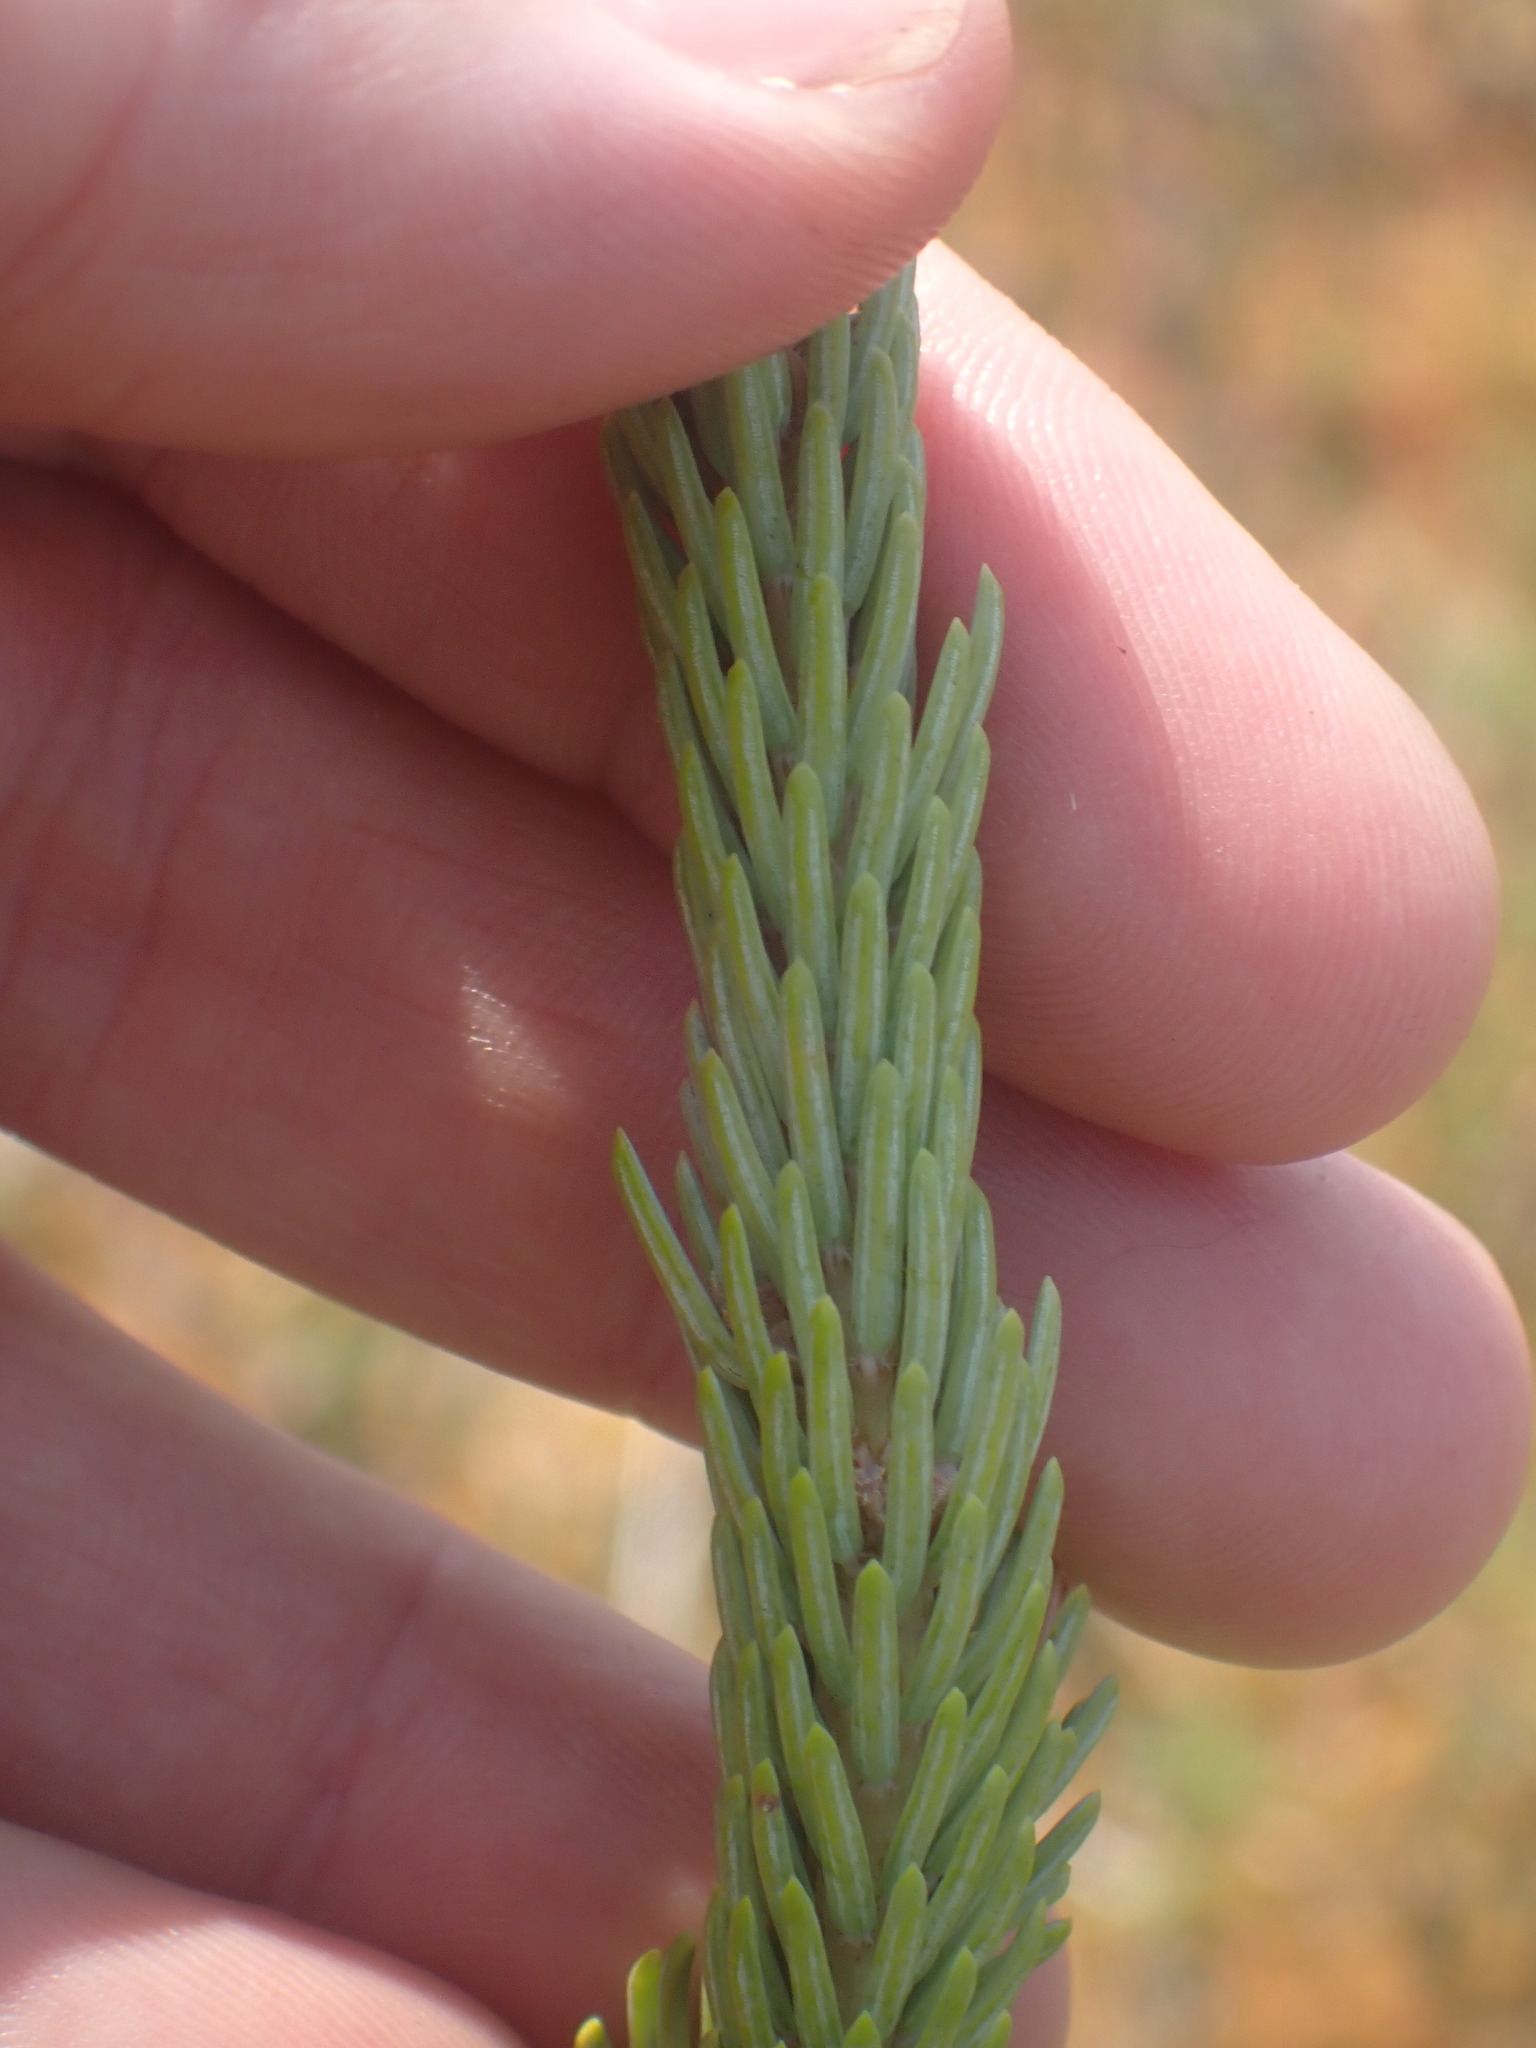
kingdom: Plantae
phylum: Tracheophyta
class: Pinopsida
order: Pinales
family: Pinaceae
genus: Picea
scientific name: Picea
